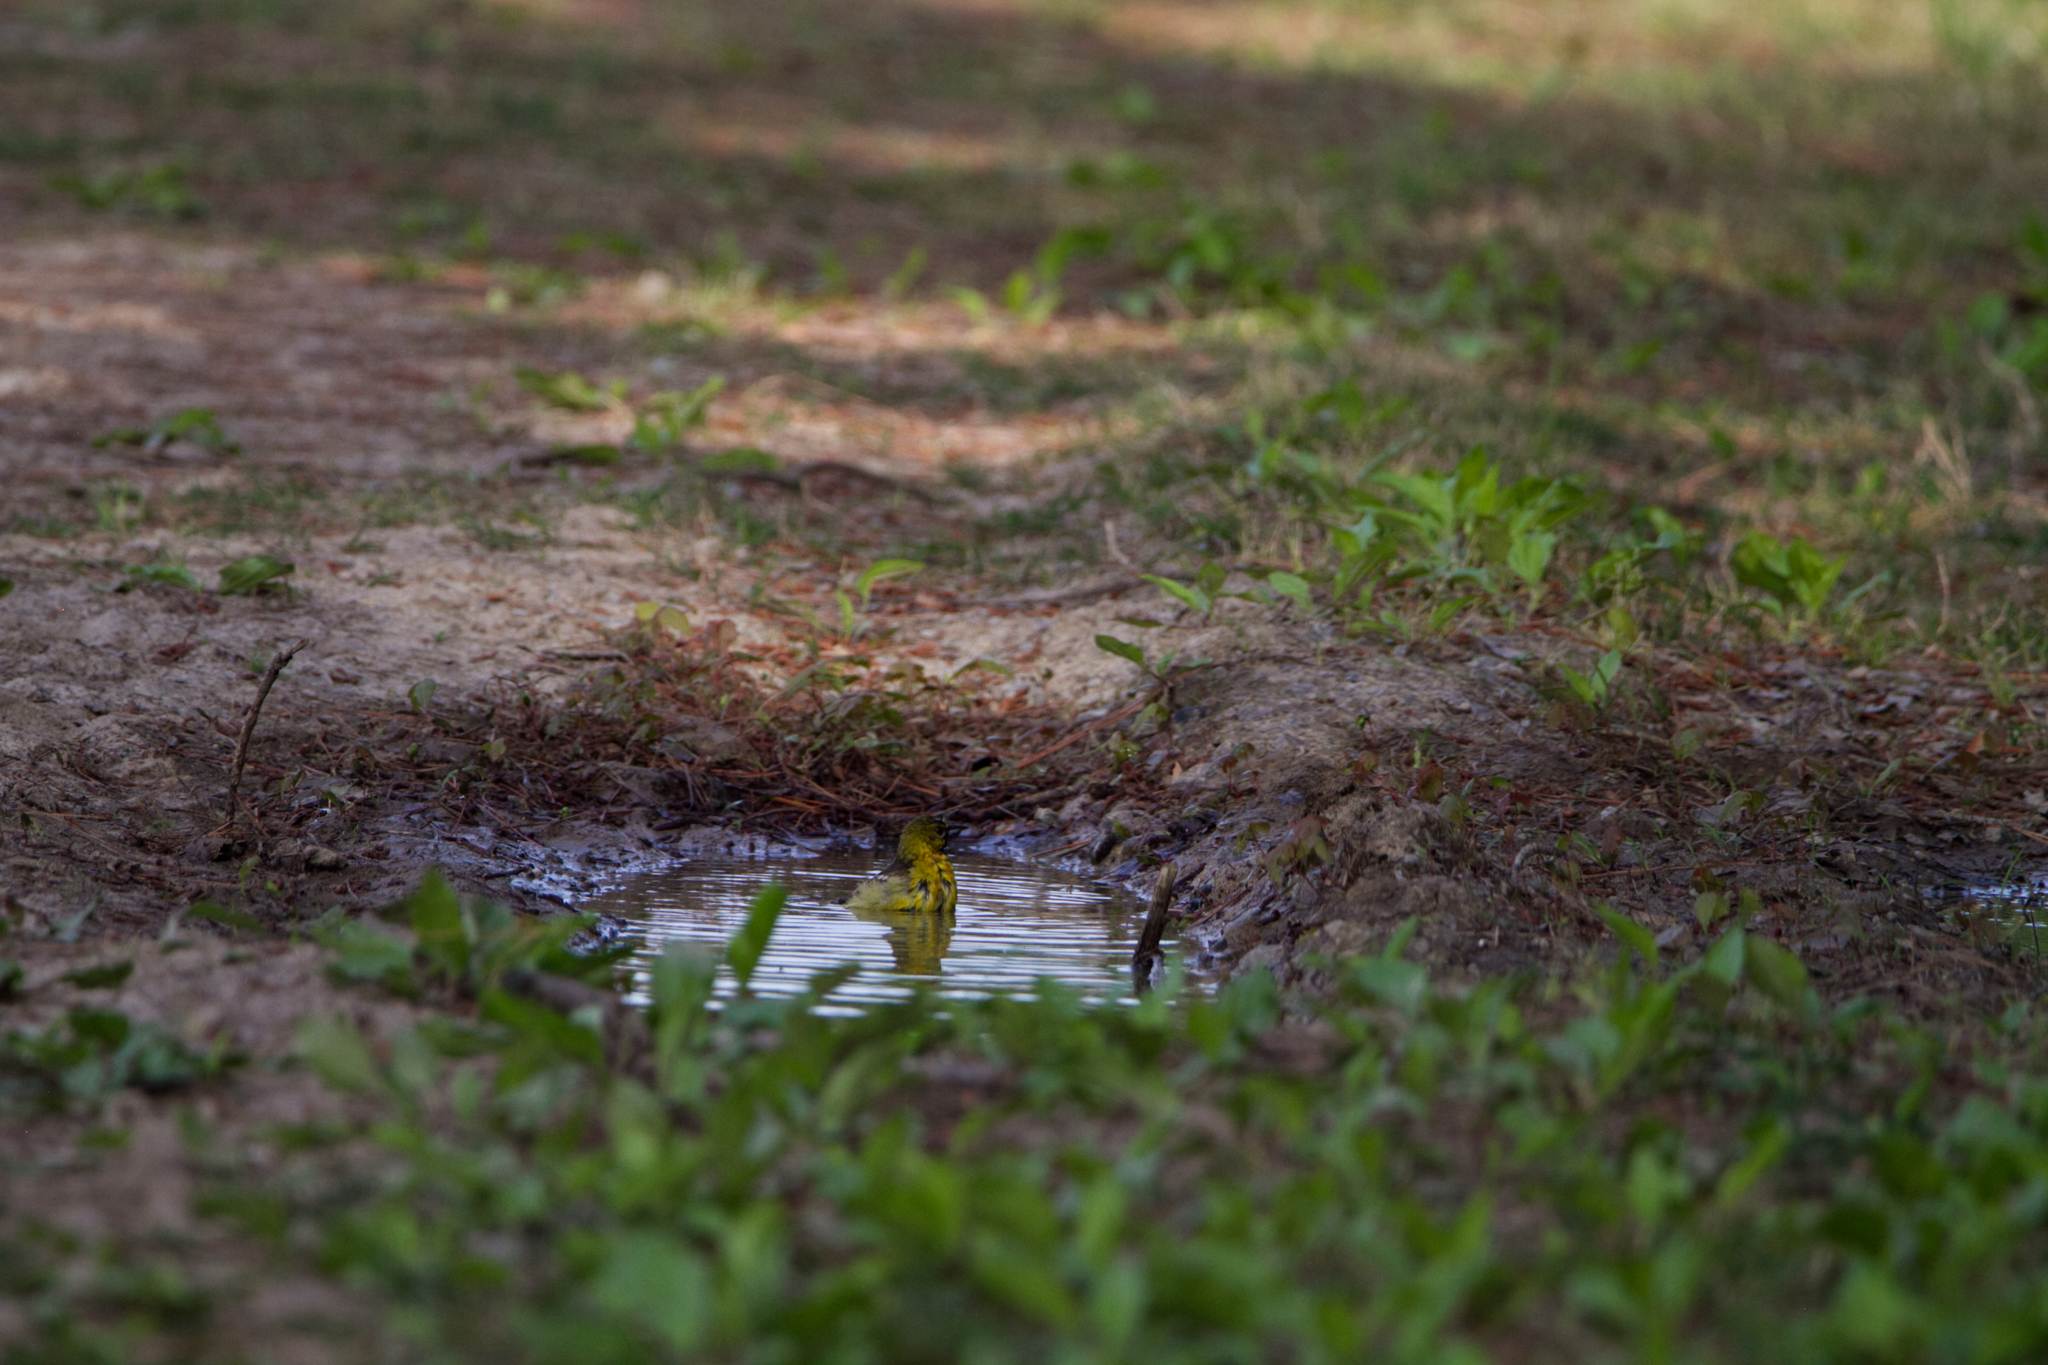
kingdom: Animalia
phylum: Chordata
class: Aves
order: Passeriformes
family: Icteridae
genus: Icterus
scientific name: Icterus spurius
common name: Orchard oriole
